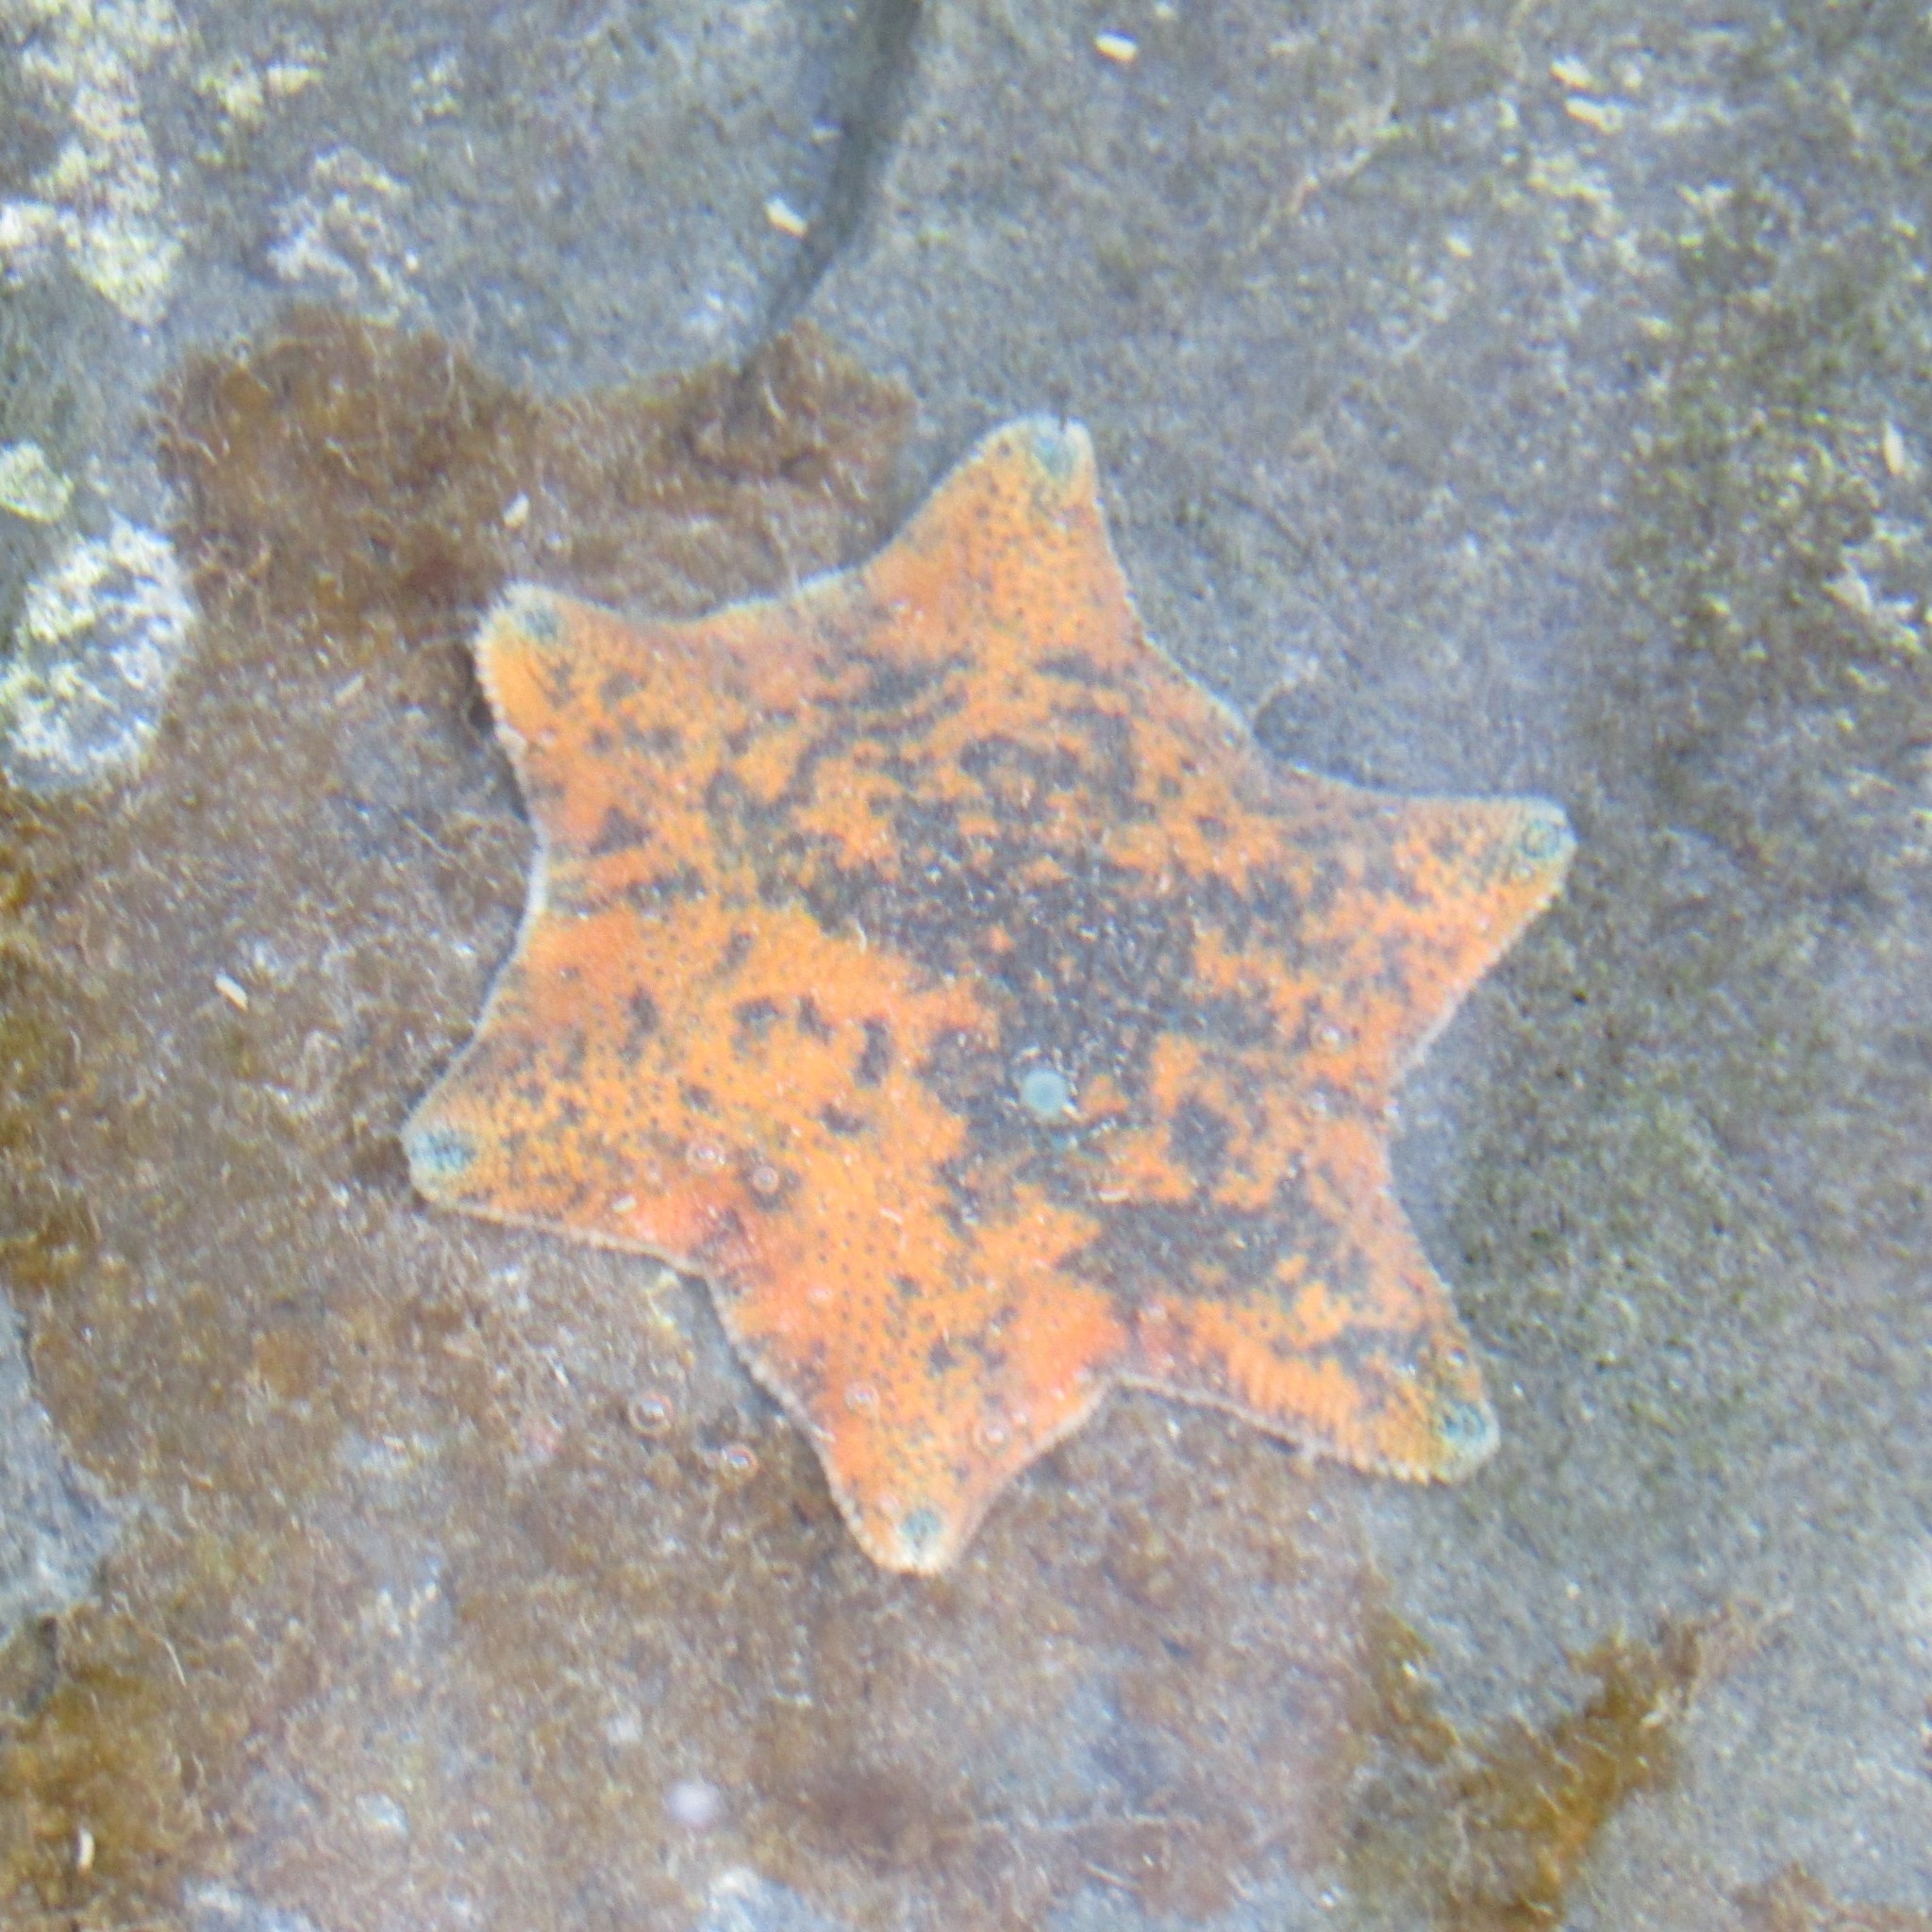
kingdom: Animalia
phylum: Echinodermata
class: Asteroidea
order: Valvatida
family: Asterinidae
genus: Patiriella
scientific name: Patiriella regularis
